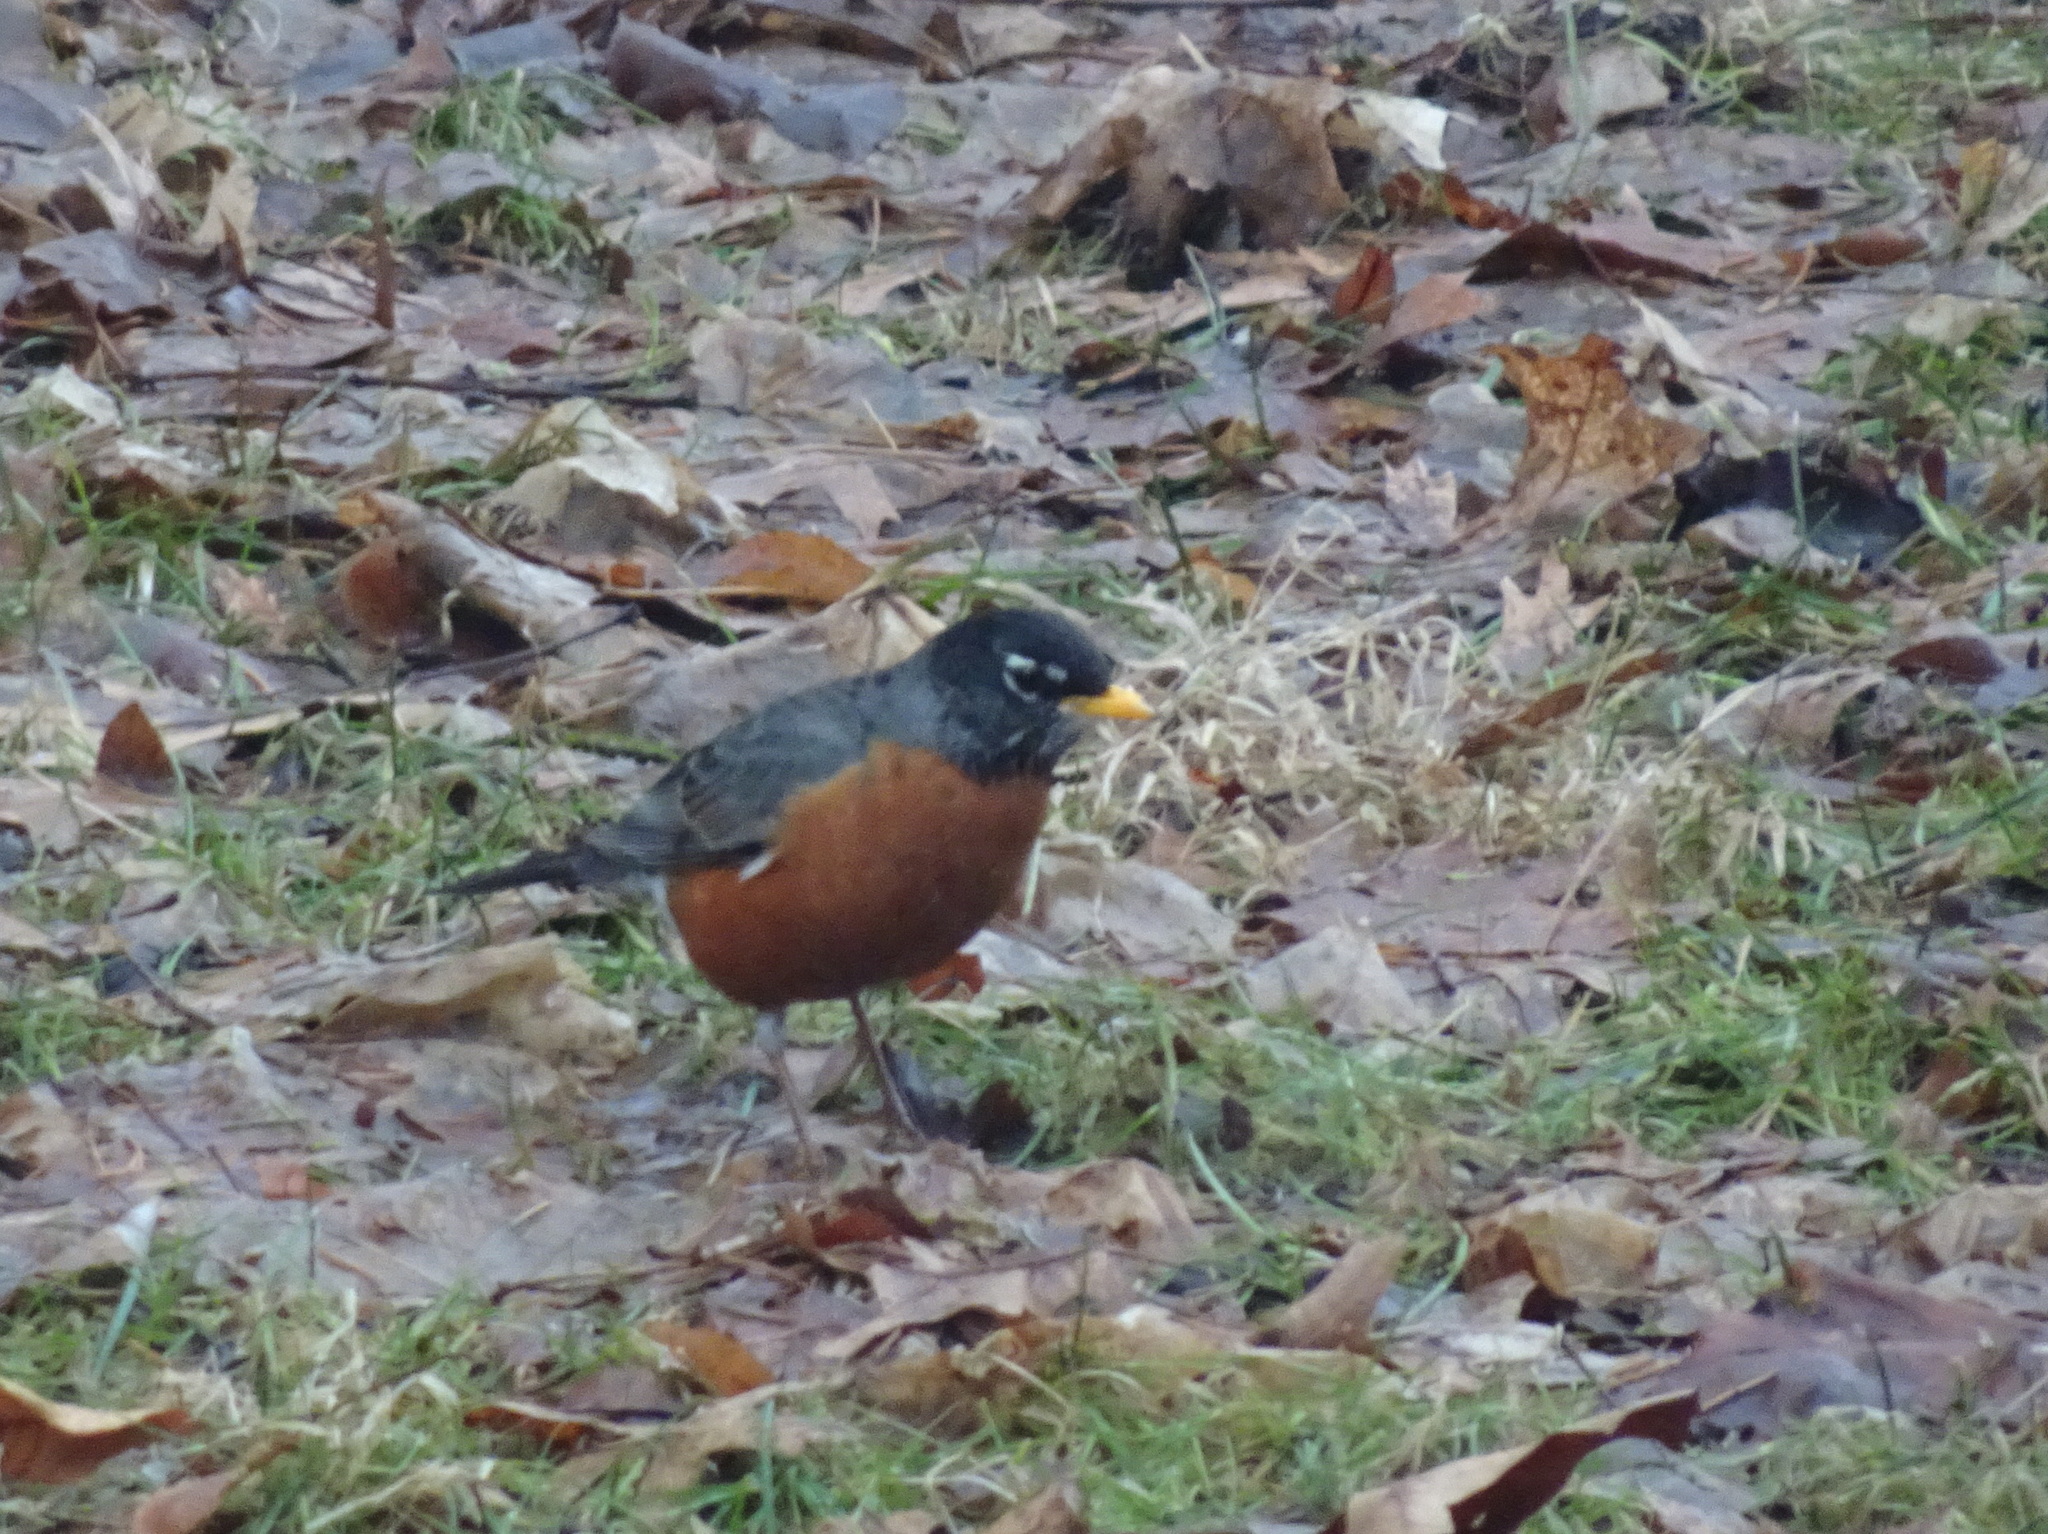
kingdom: Animalia
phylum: Chordata
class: Aves
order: Passeriformes
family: Turdidae
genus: Turdus
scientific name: Turdus migratorius
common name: American robin
